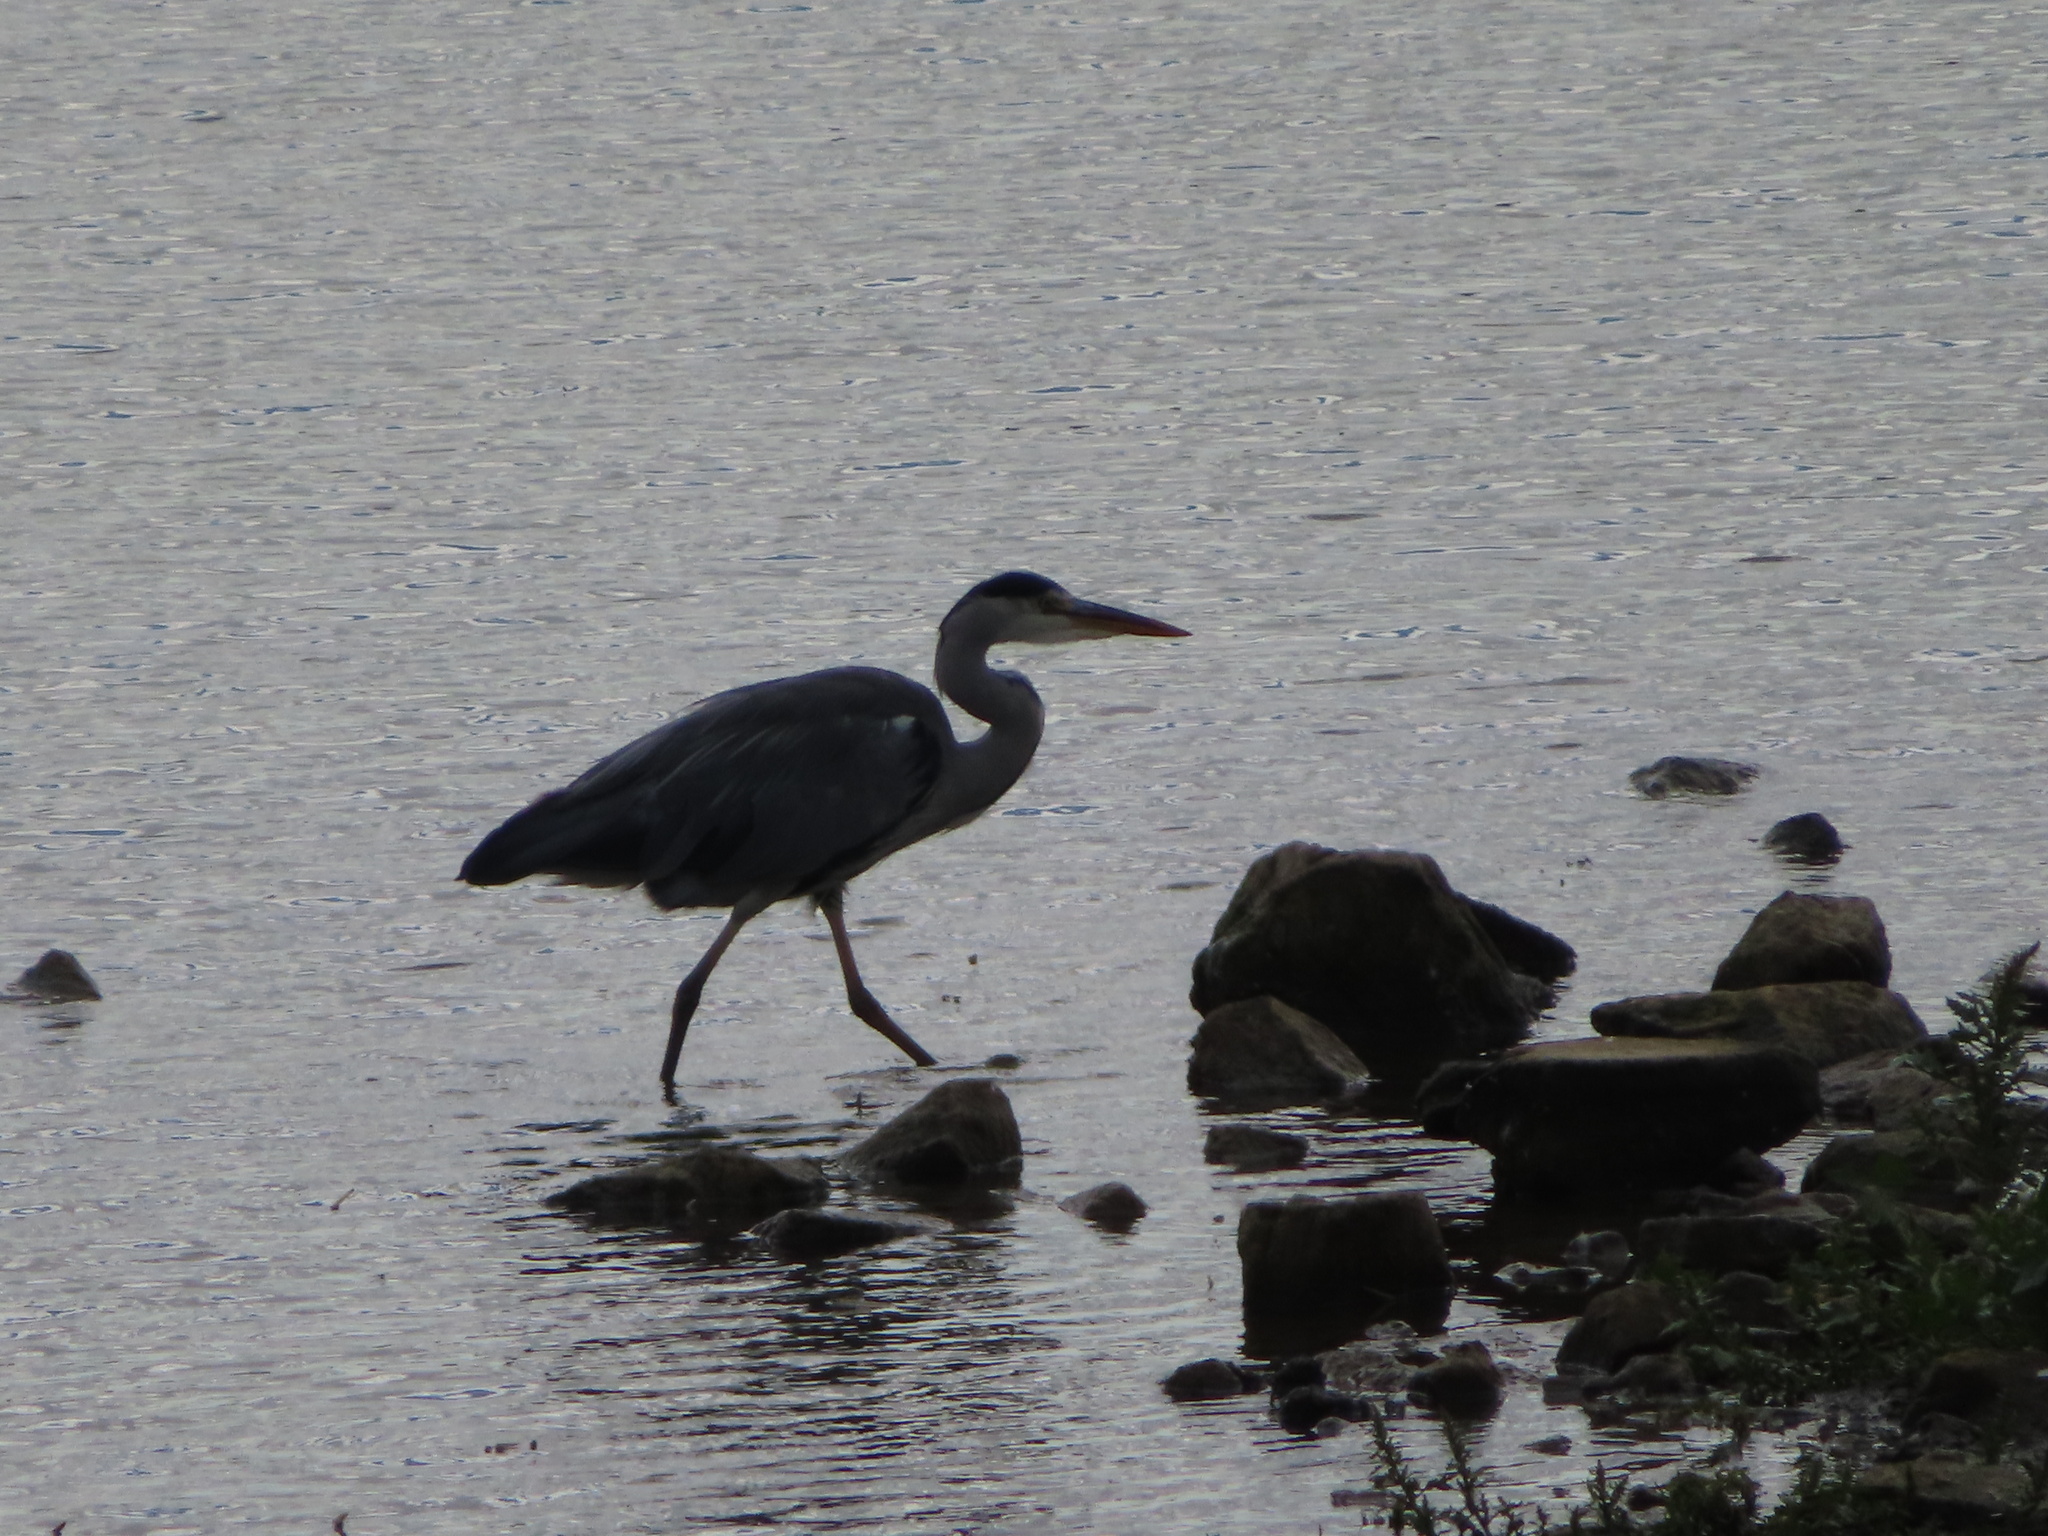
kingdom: Animalia
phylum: Chordata
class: Aves
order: Pelecaniformes
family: Ardeidae
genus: Ardea
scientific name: Ardea cinerea
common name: Grey heron
